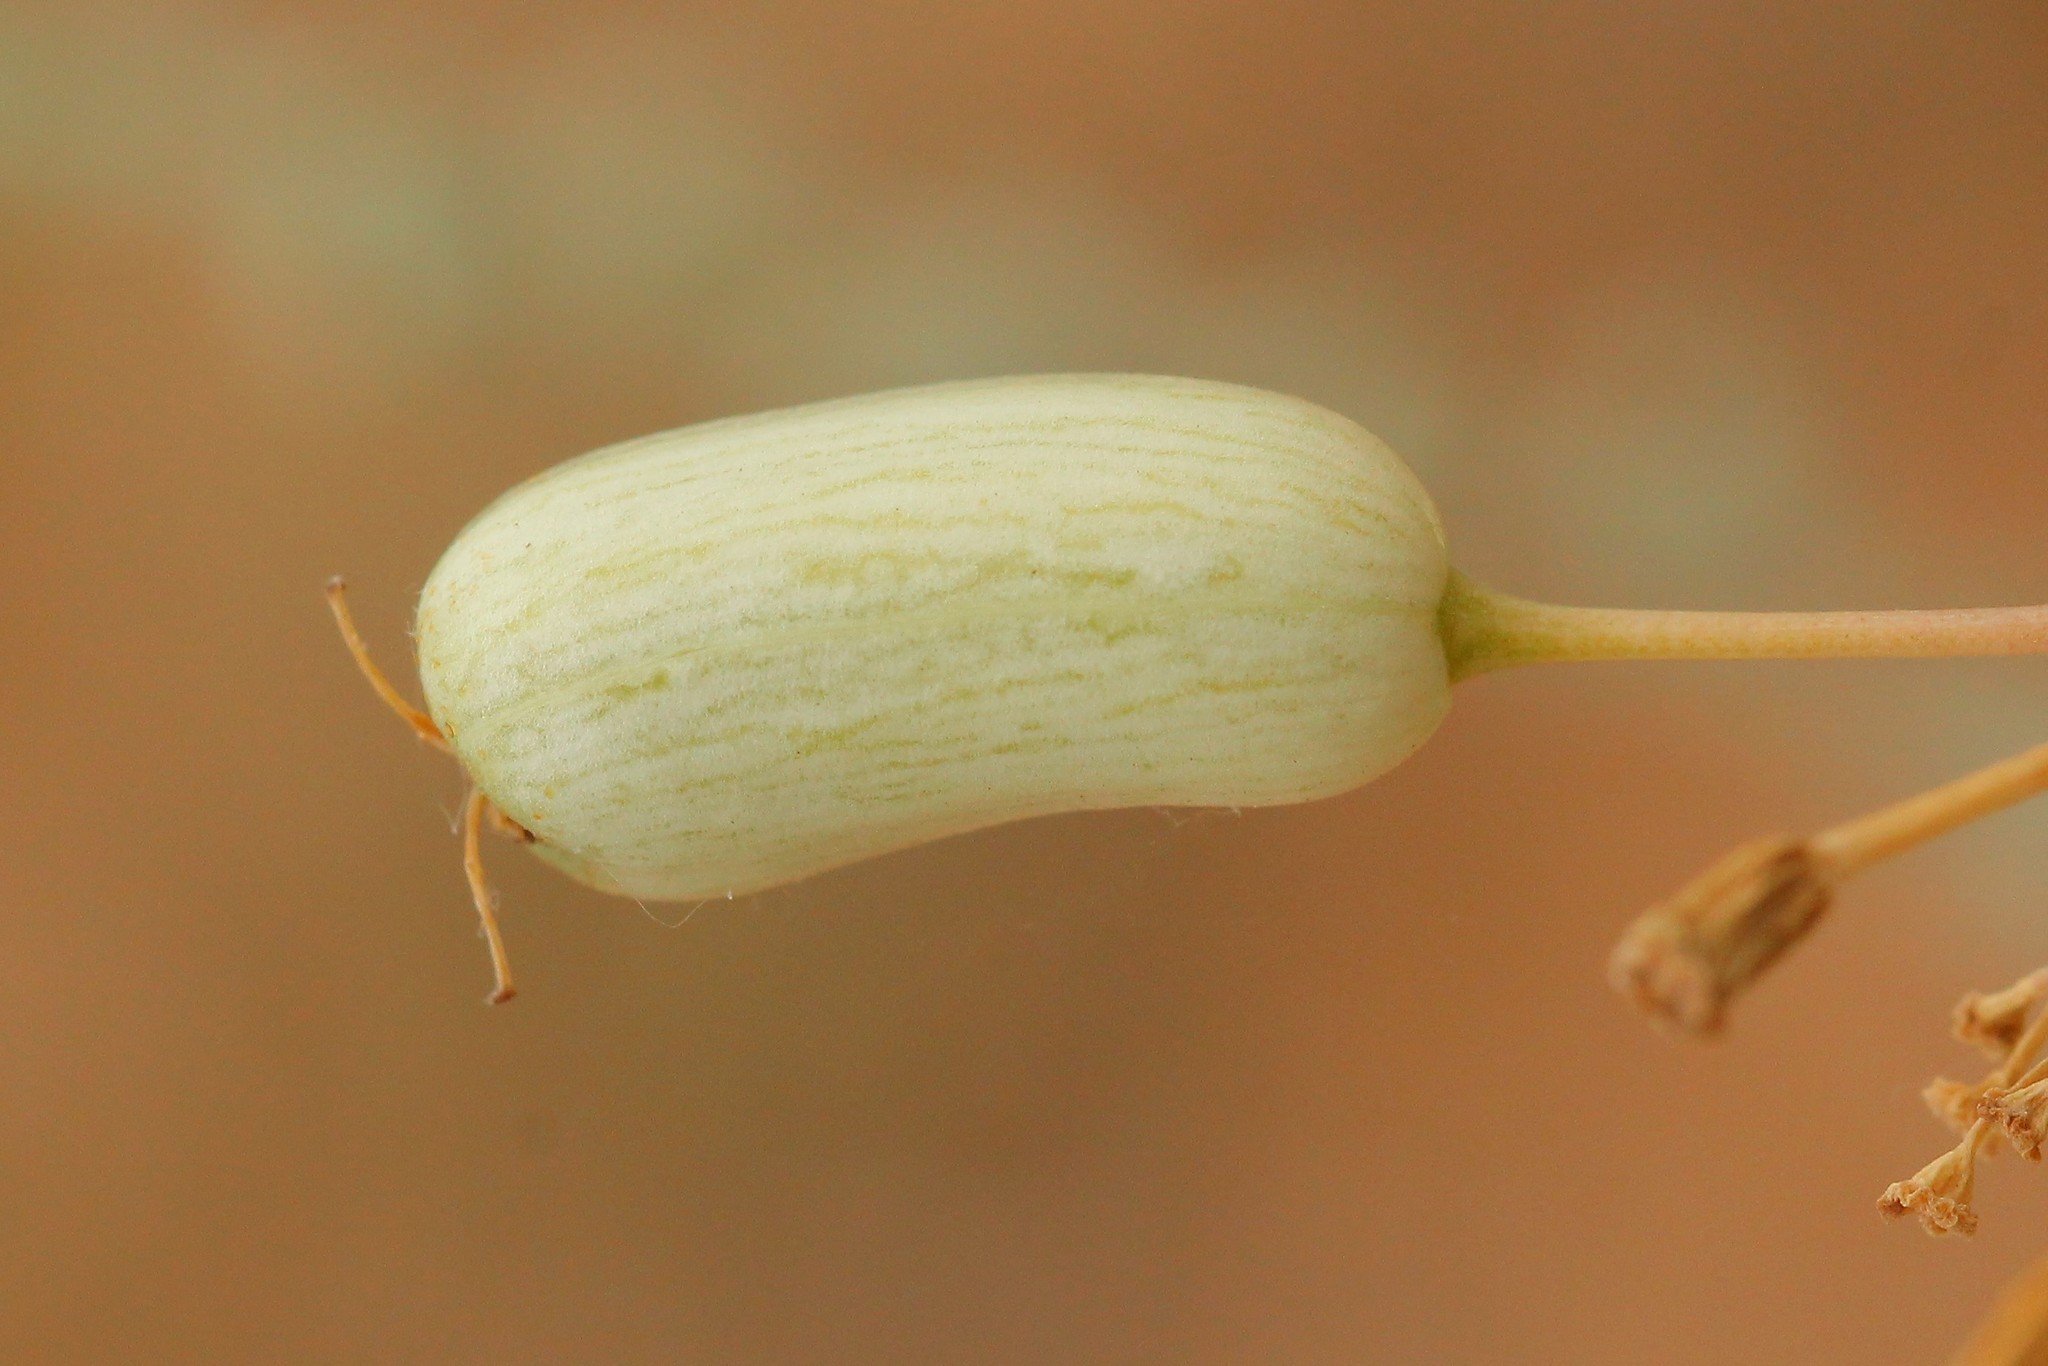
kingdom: Plantae
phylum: Tracheophyta
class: Magnoliopsida
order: Apiales
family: Apiaceae
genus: Prangos
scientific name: Prangos odontalgica
